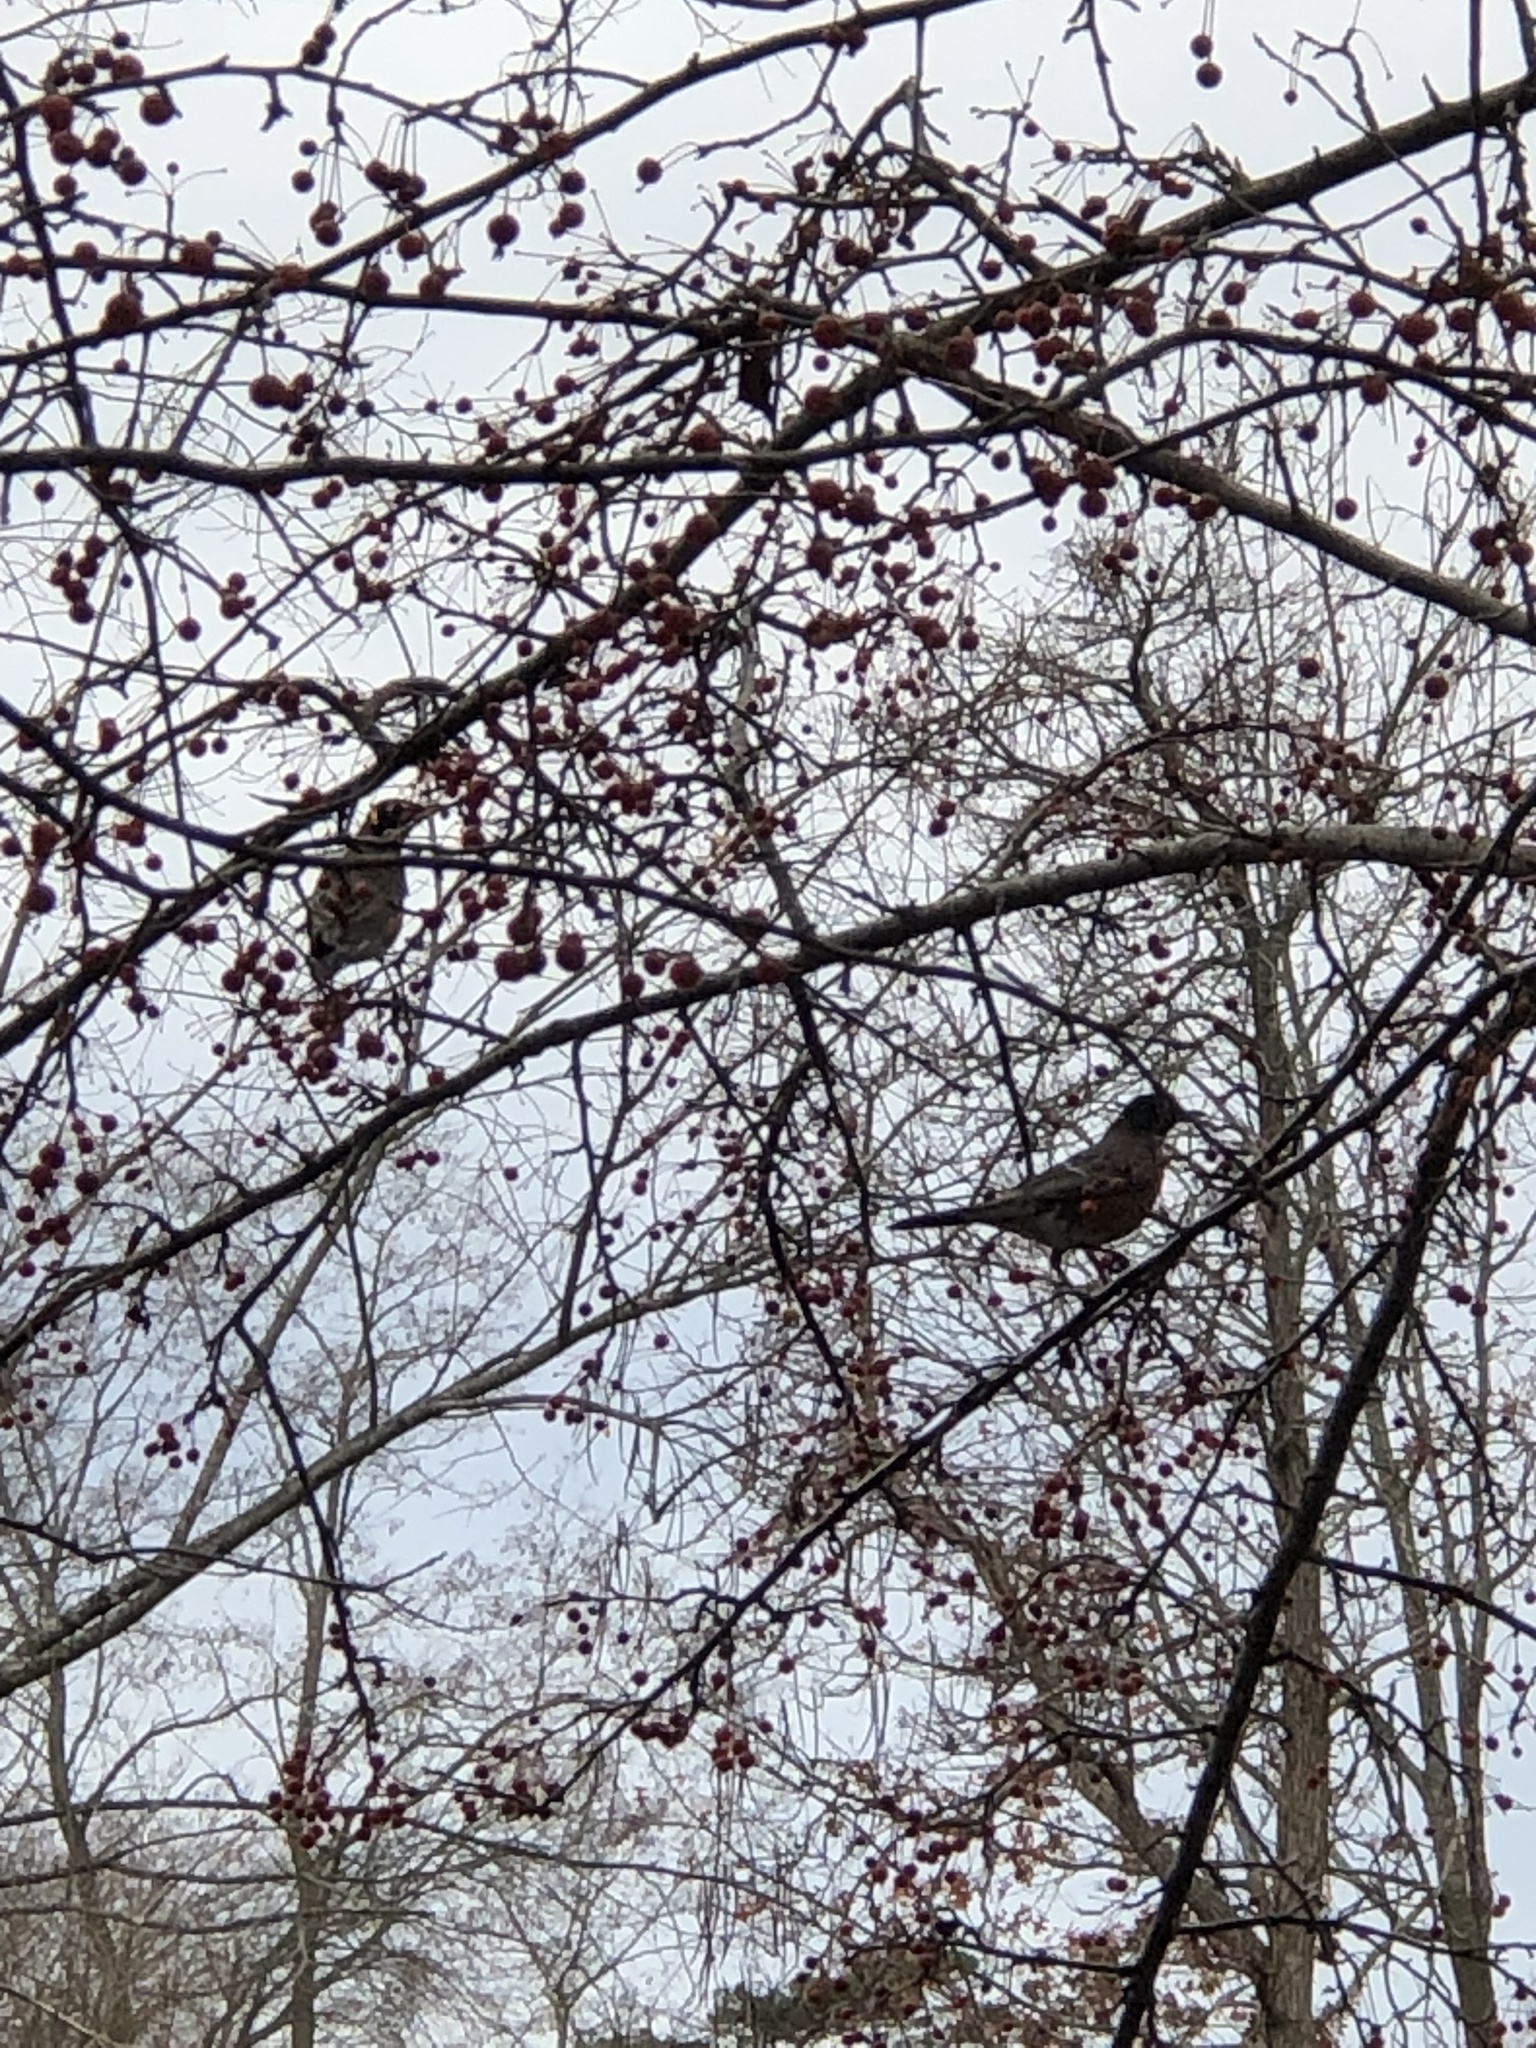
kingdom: Animalia
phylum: Chordata
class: Aves
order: Passeriformes
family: Turdidae
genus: Turdus
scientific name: Turdus migratorius
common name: American robin
